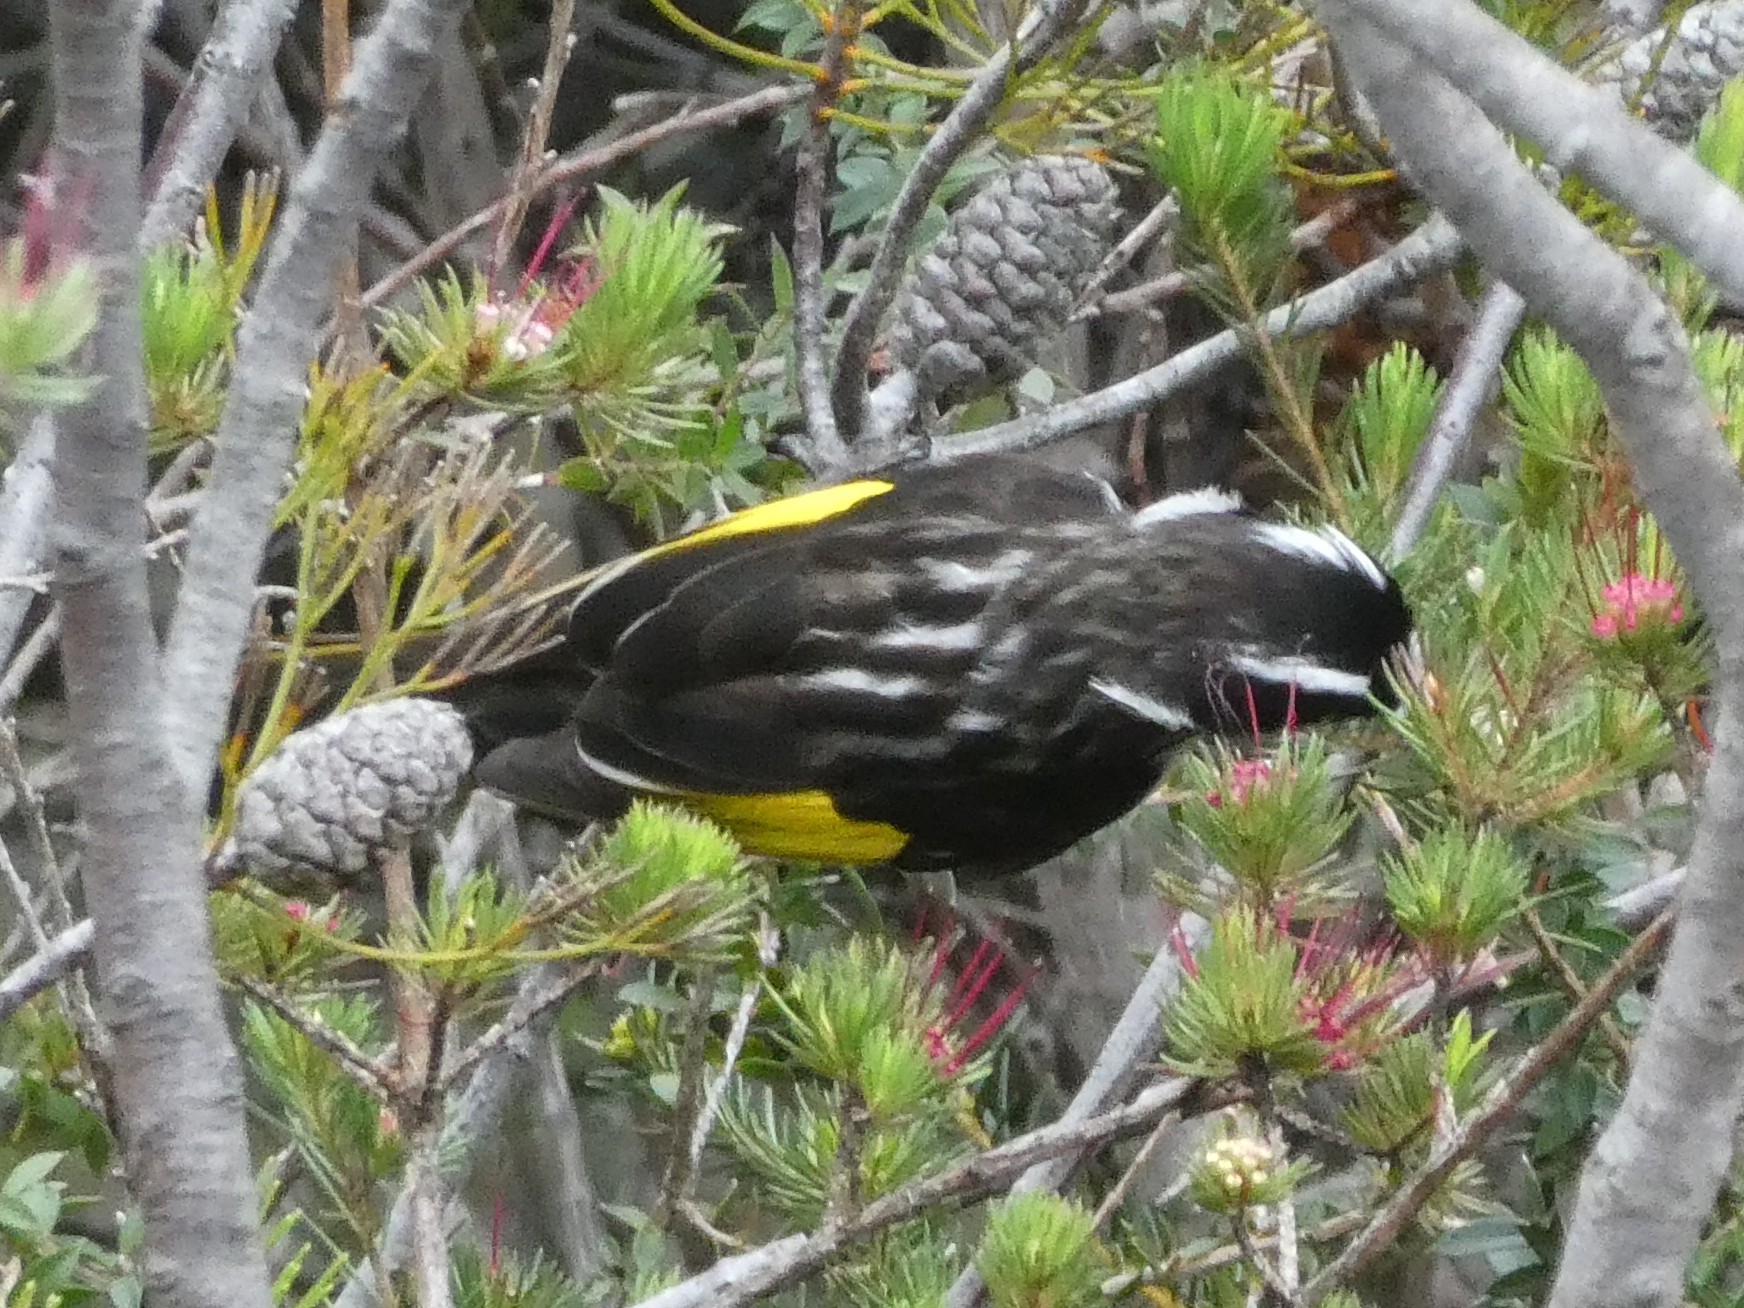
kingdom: Animalia
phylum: Chordata
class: Aves
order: Passeriformes
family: Meliphagidae
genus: Phylidonyris
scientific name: Phylidonyris novaehollandiae
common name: New holland honeyeater
